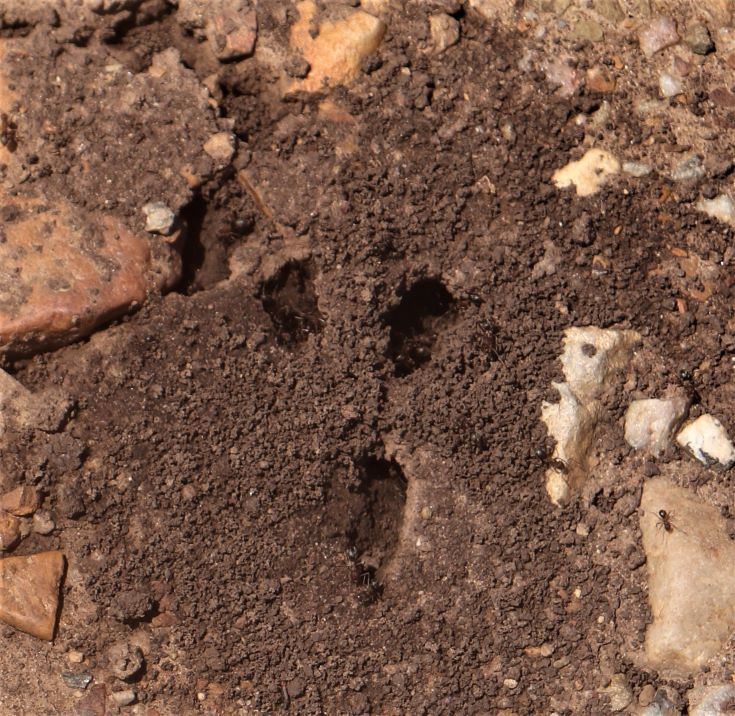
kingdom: Animalia
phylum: Arthropoda
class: Insecta
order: Hymenoptera
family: Formicidae
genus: Anoplolepis
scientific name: Anoplolepis steingroeveri
